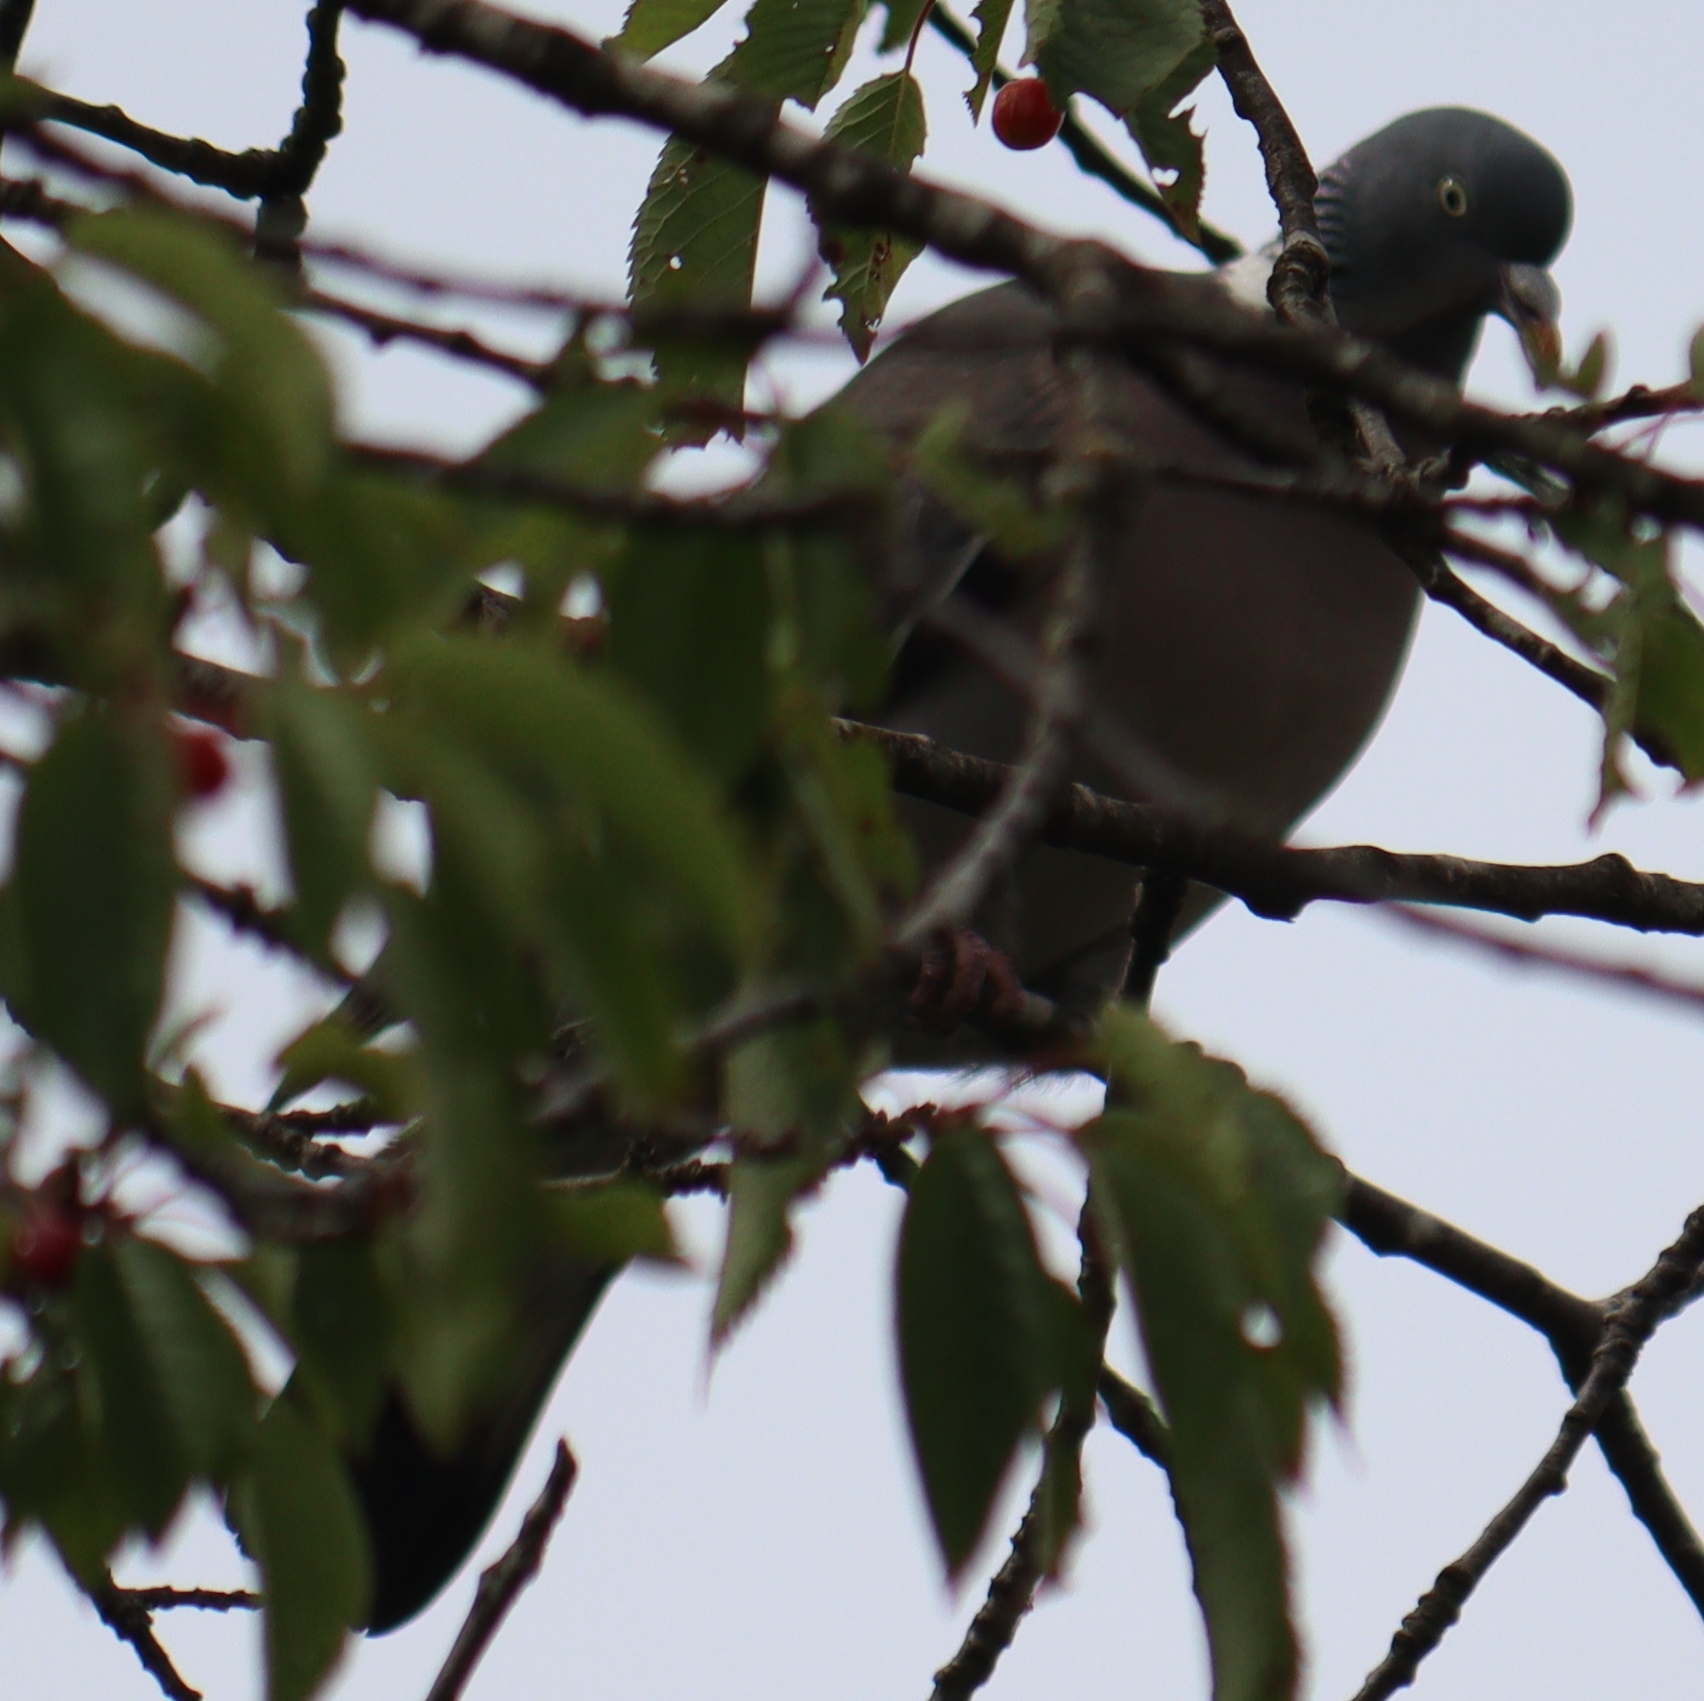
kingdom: Animalia
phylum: Chordata
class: Aves
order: Columbiformes
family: Columbidae
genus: Columba
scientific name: Columba palumbus
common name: Common wood pigeon
